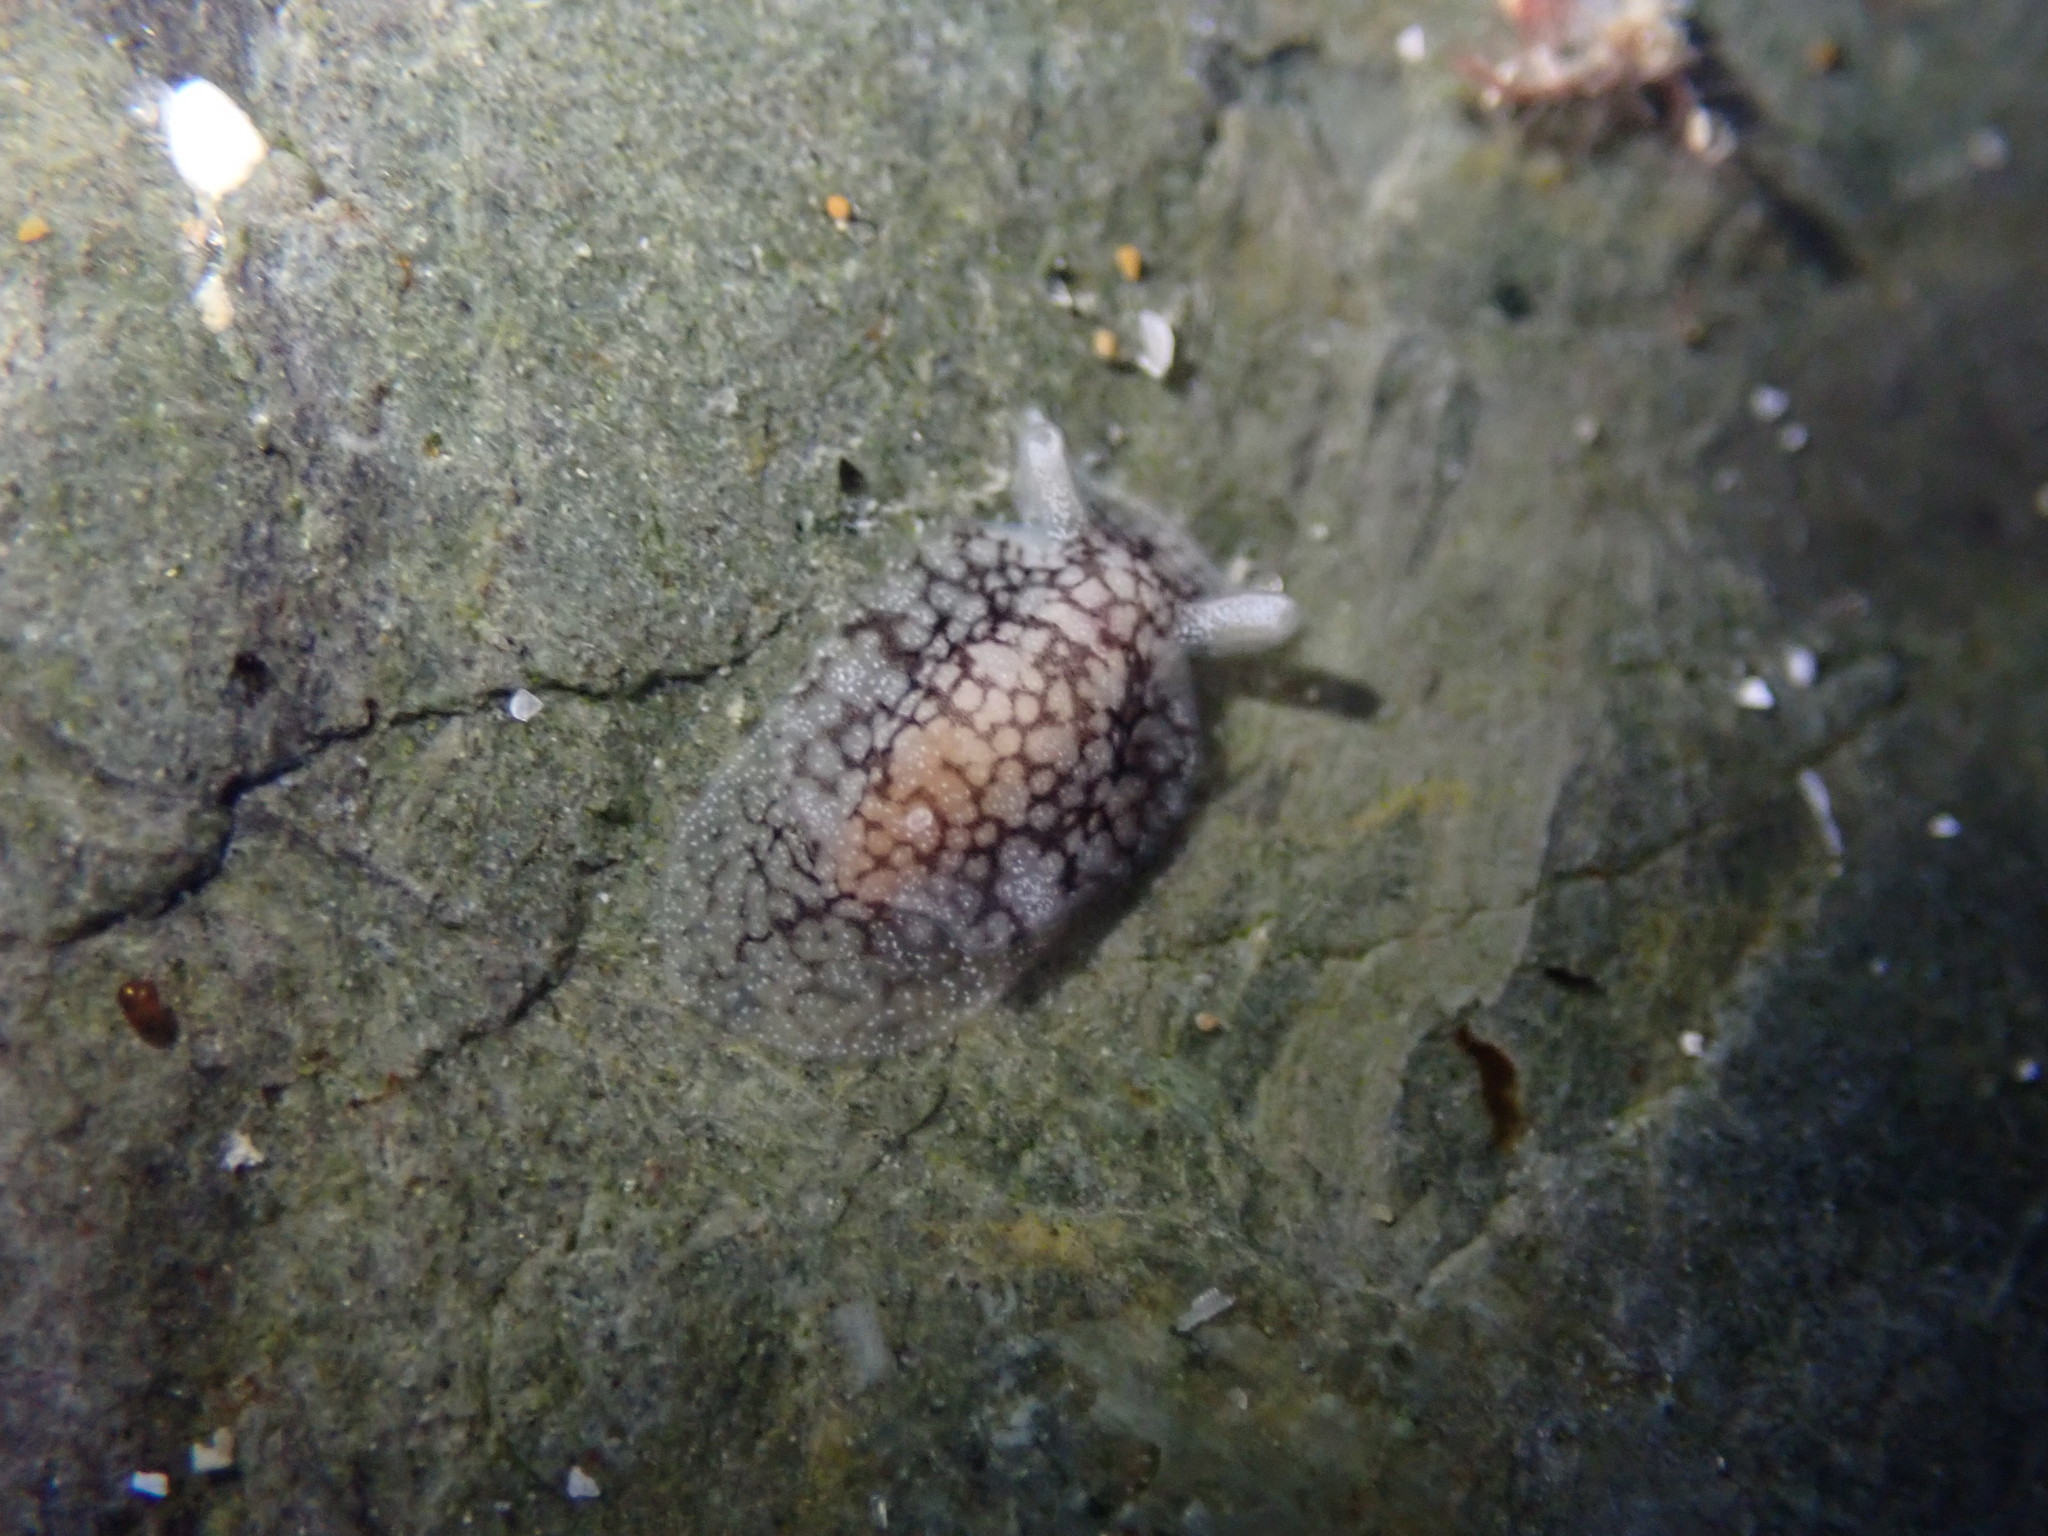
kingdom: Animalia
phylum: Mollusca
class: Gastropoda
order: Pleurobranchida
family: Pleurobranchaeidae
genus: Pleurobranchaea
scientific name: Pleurobranchaea maculata
